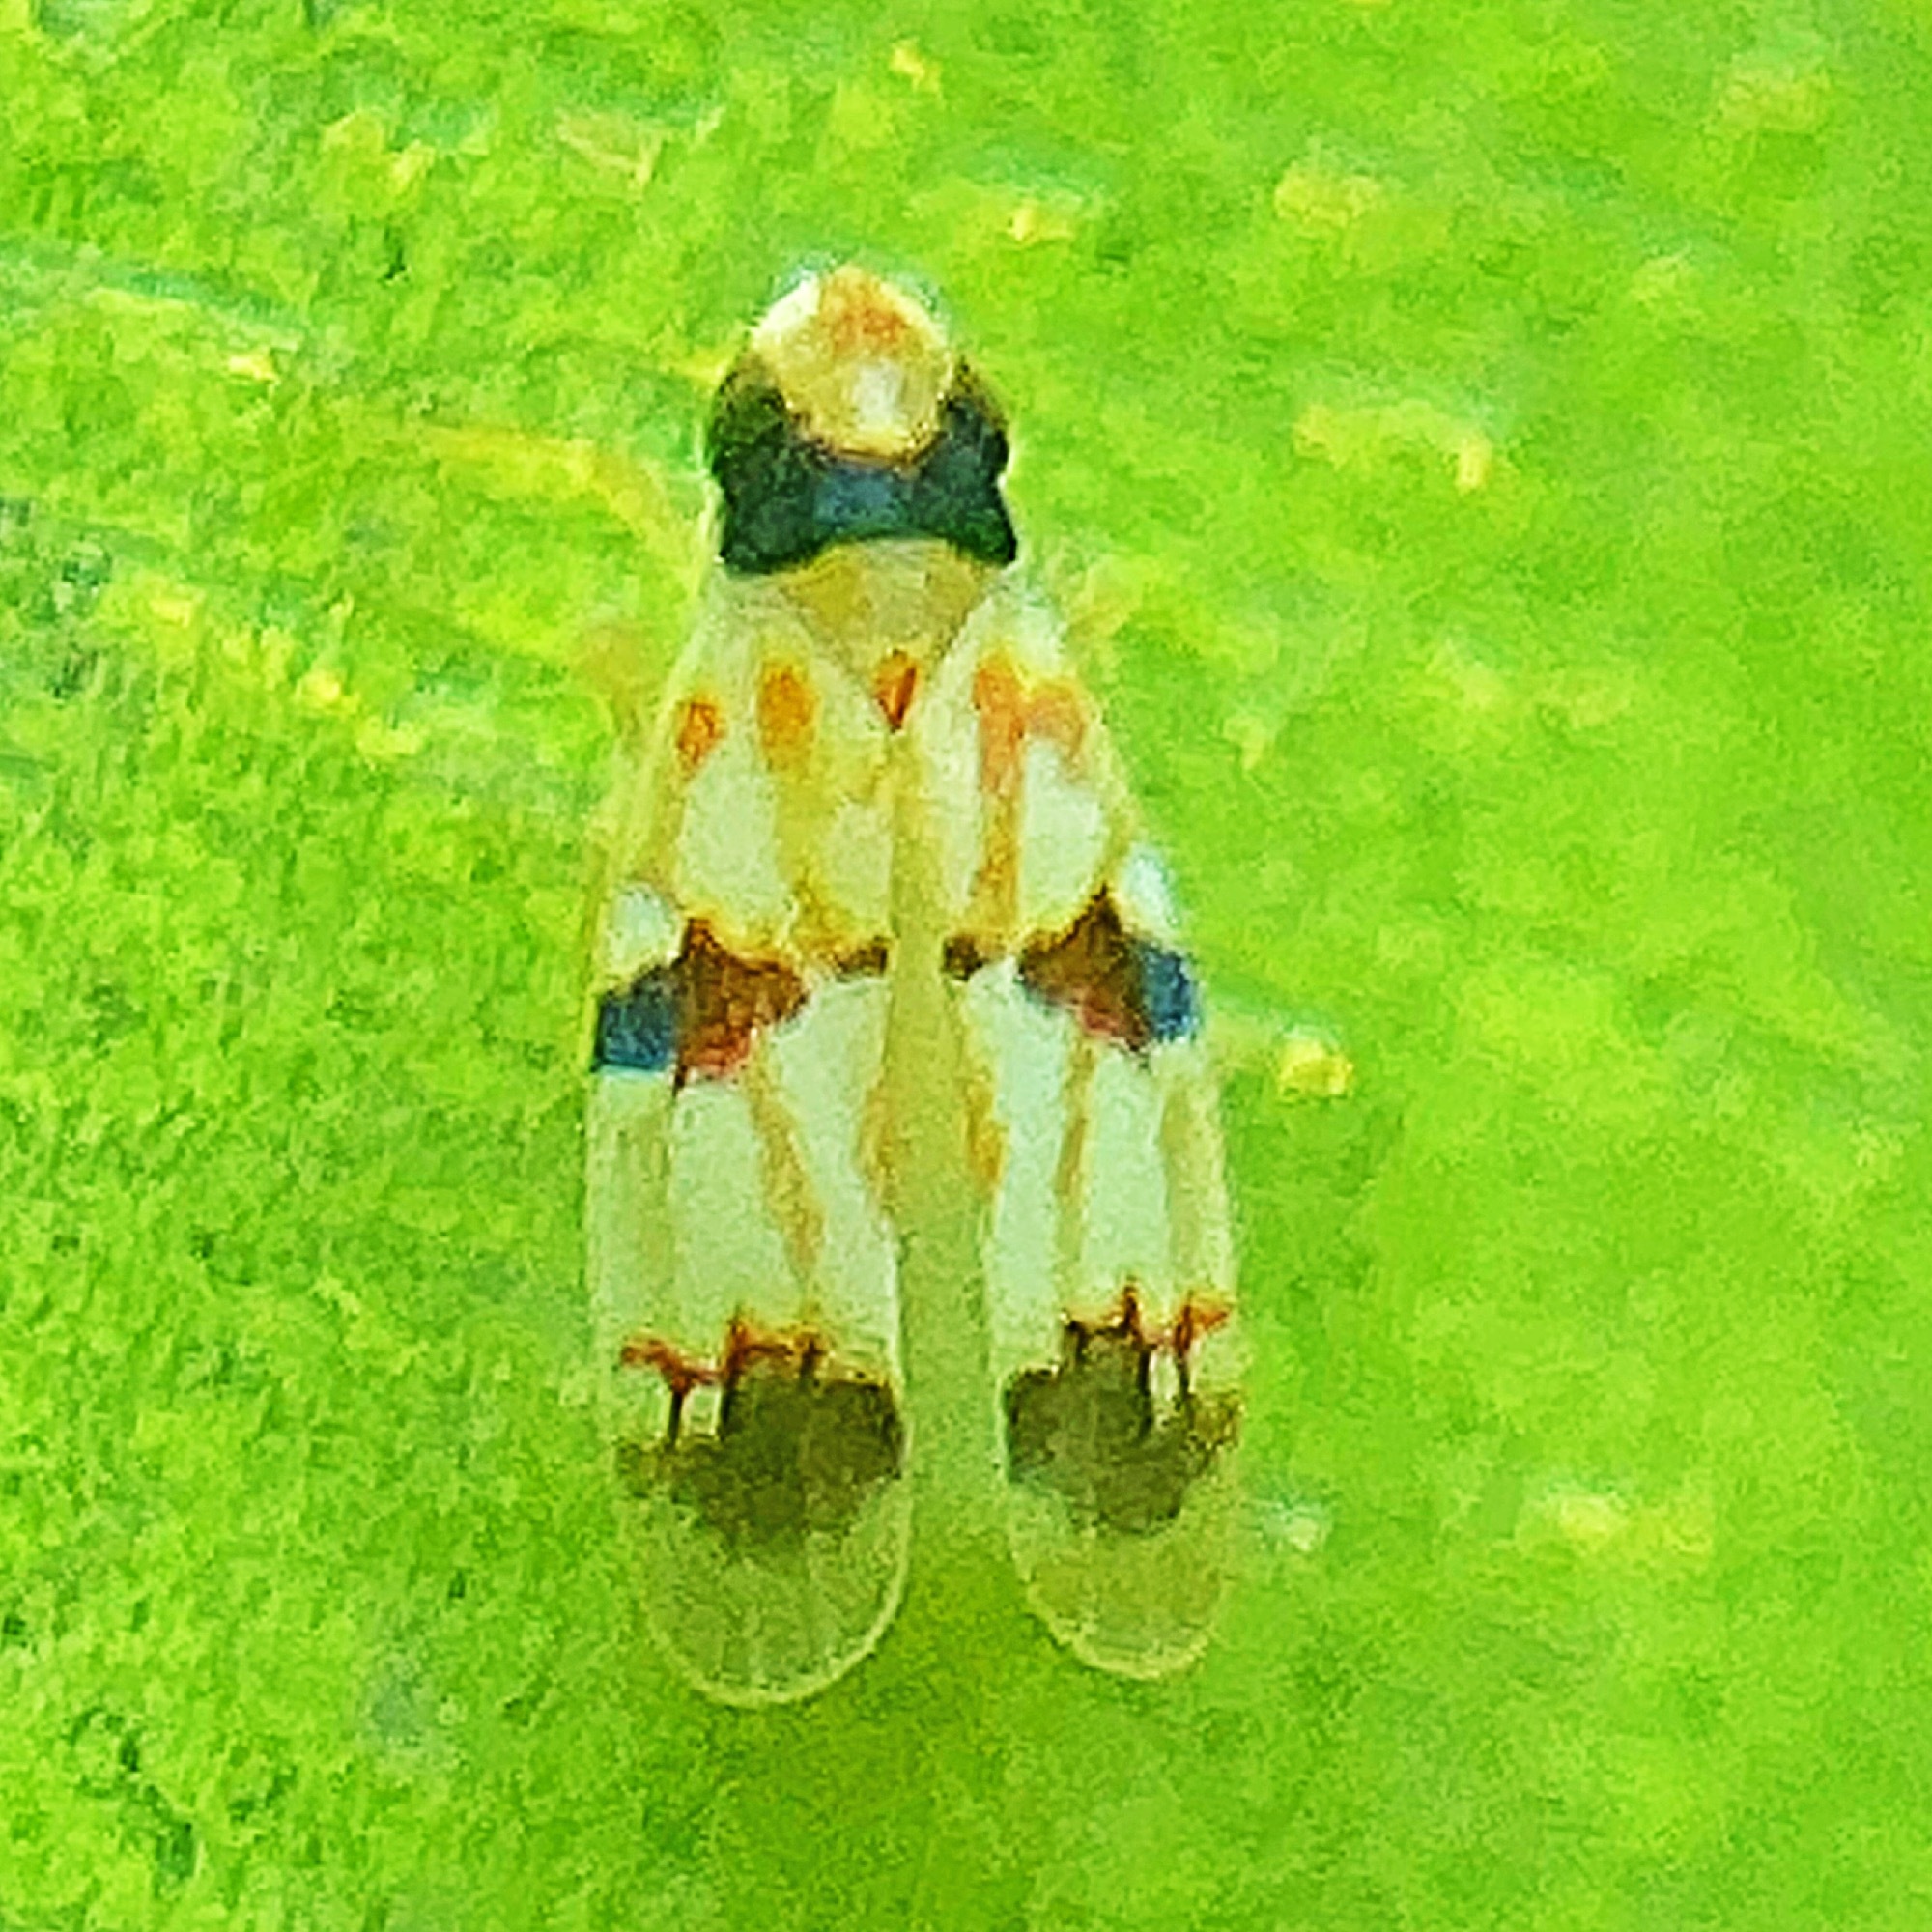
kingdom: Animalia
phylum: Arthropoda
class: Insecta
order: Hemiptera
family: Cicadellidae
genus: Erythroneura
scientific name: Erythroneura cymbium
